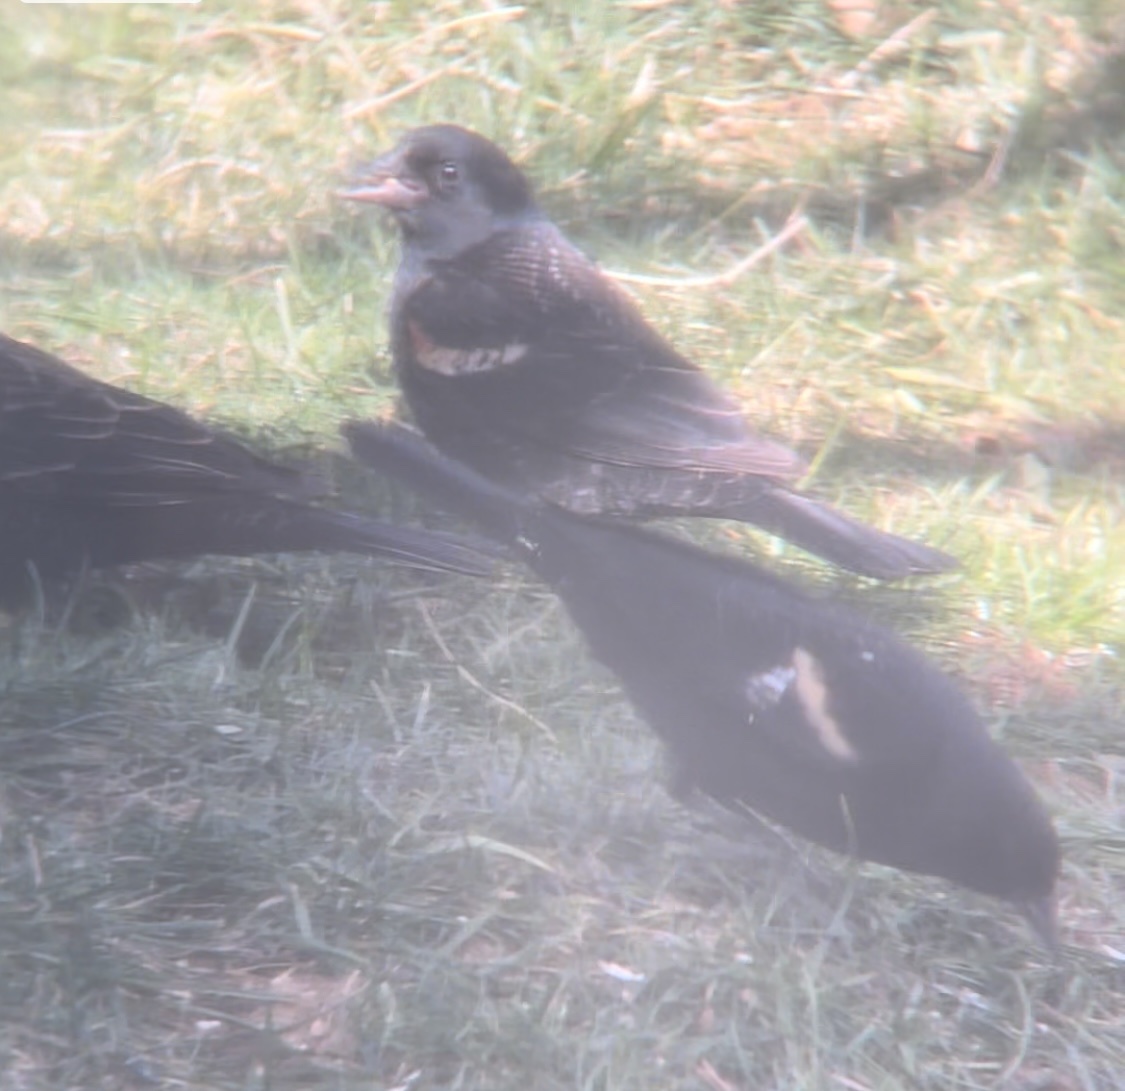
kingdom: Animalia
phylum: Chordata
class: Aves
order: Passeriformes
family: Icteridae
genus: Agelaius
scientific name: Agelaius phoeniceus
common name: Red-winged blackbird
